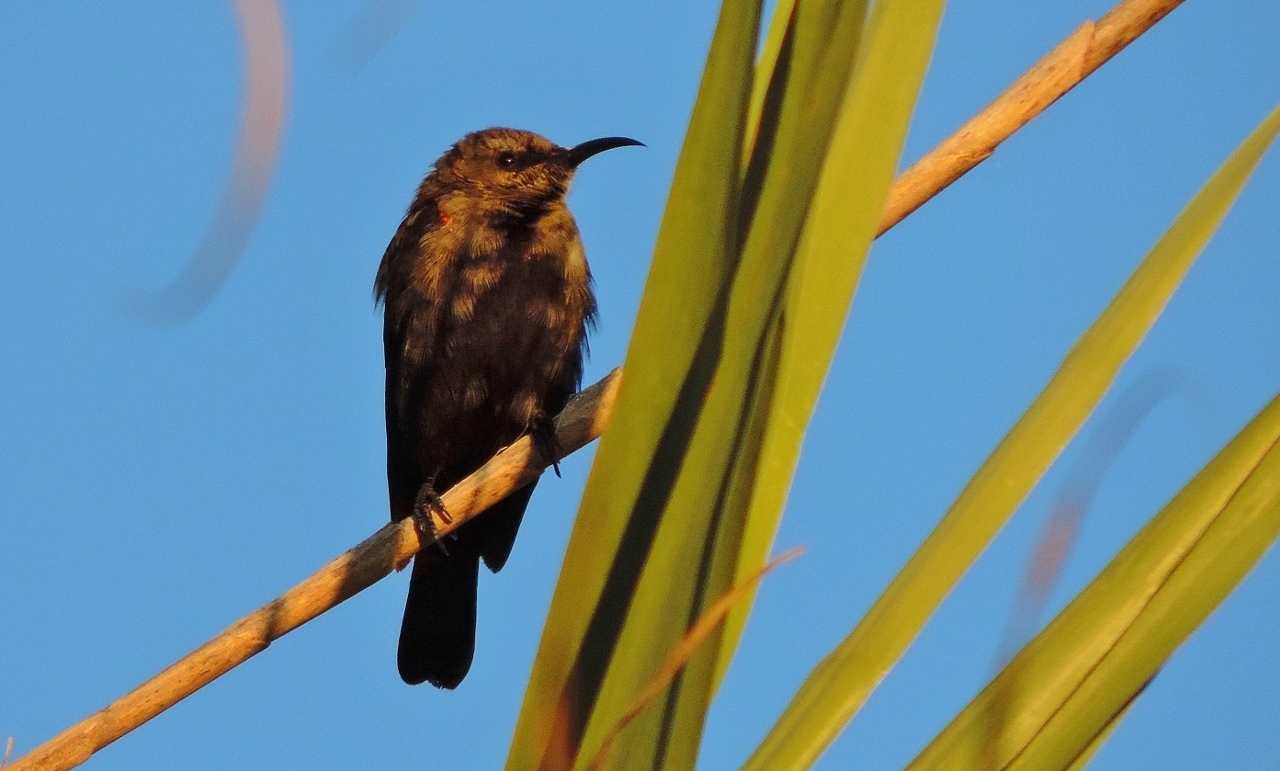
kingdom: Animalia
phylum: Chordata
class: Aves
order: Passeriformes
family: Nectariniidae
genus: Cinnyris
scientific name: Cinnyris cupreus
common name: Copper sunbird
